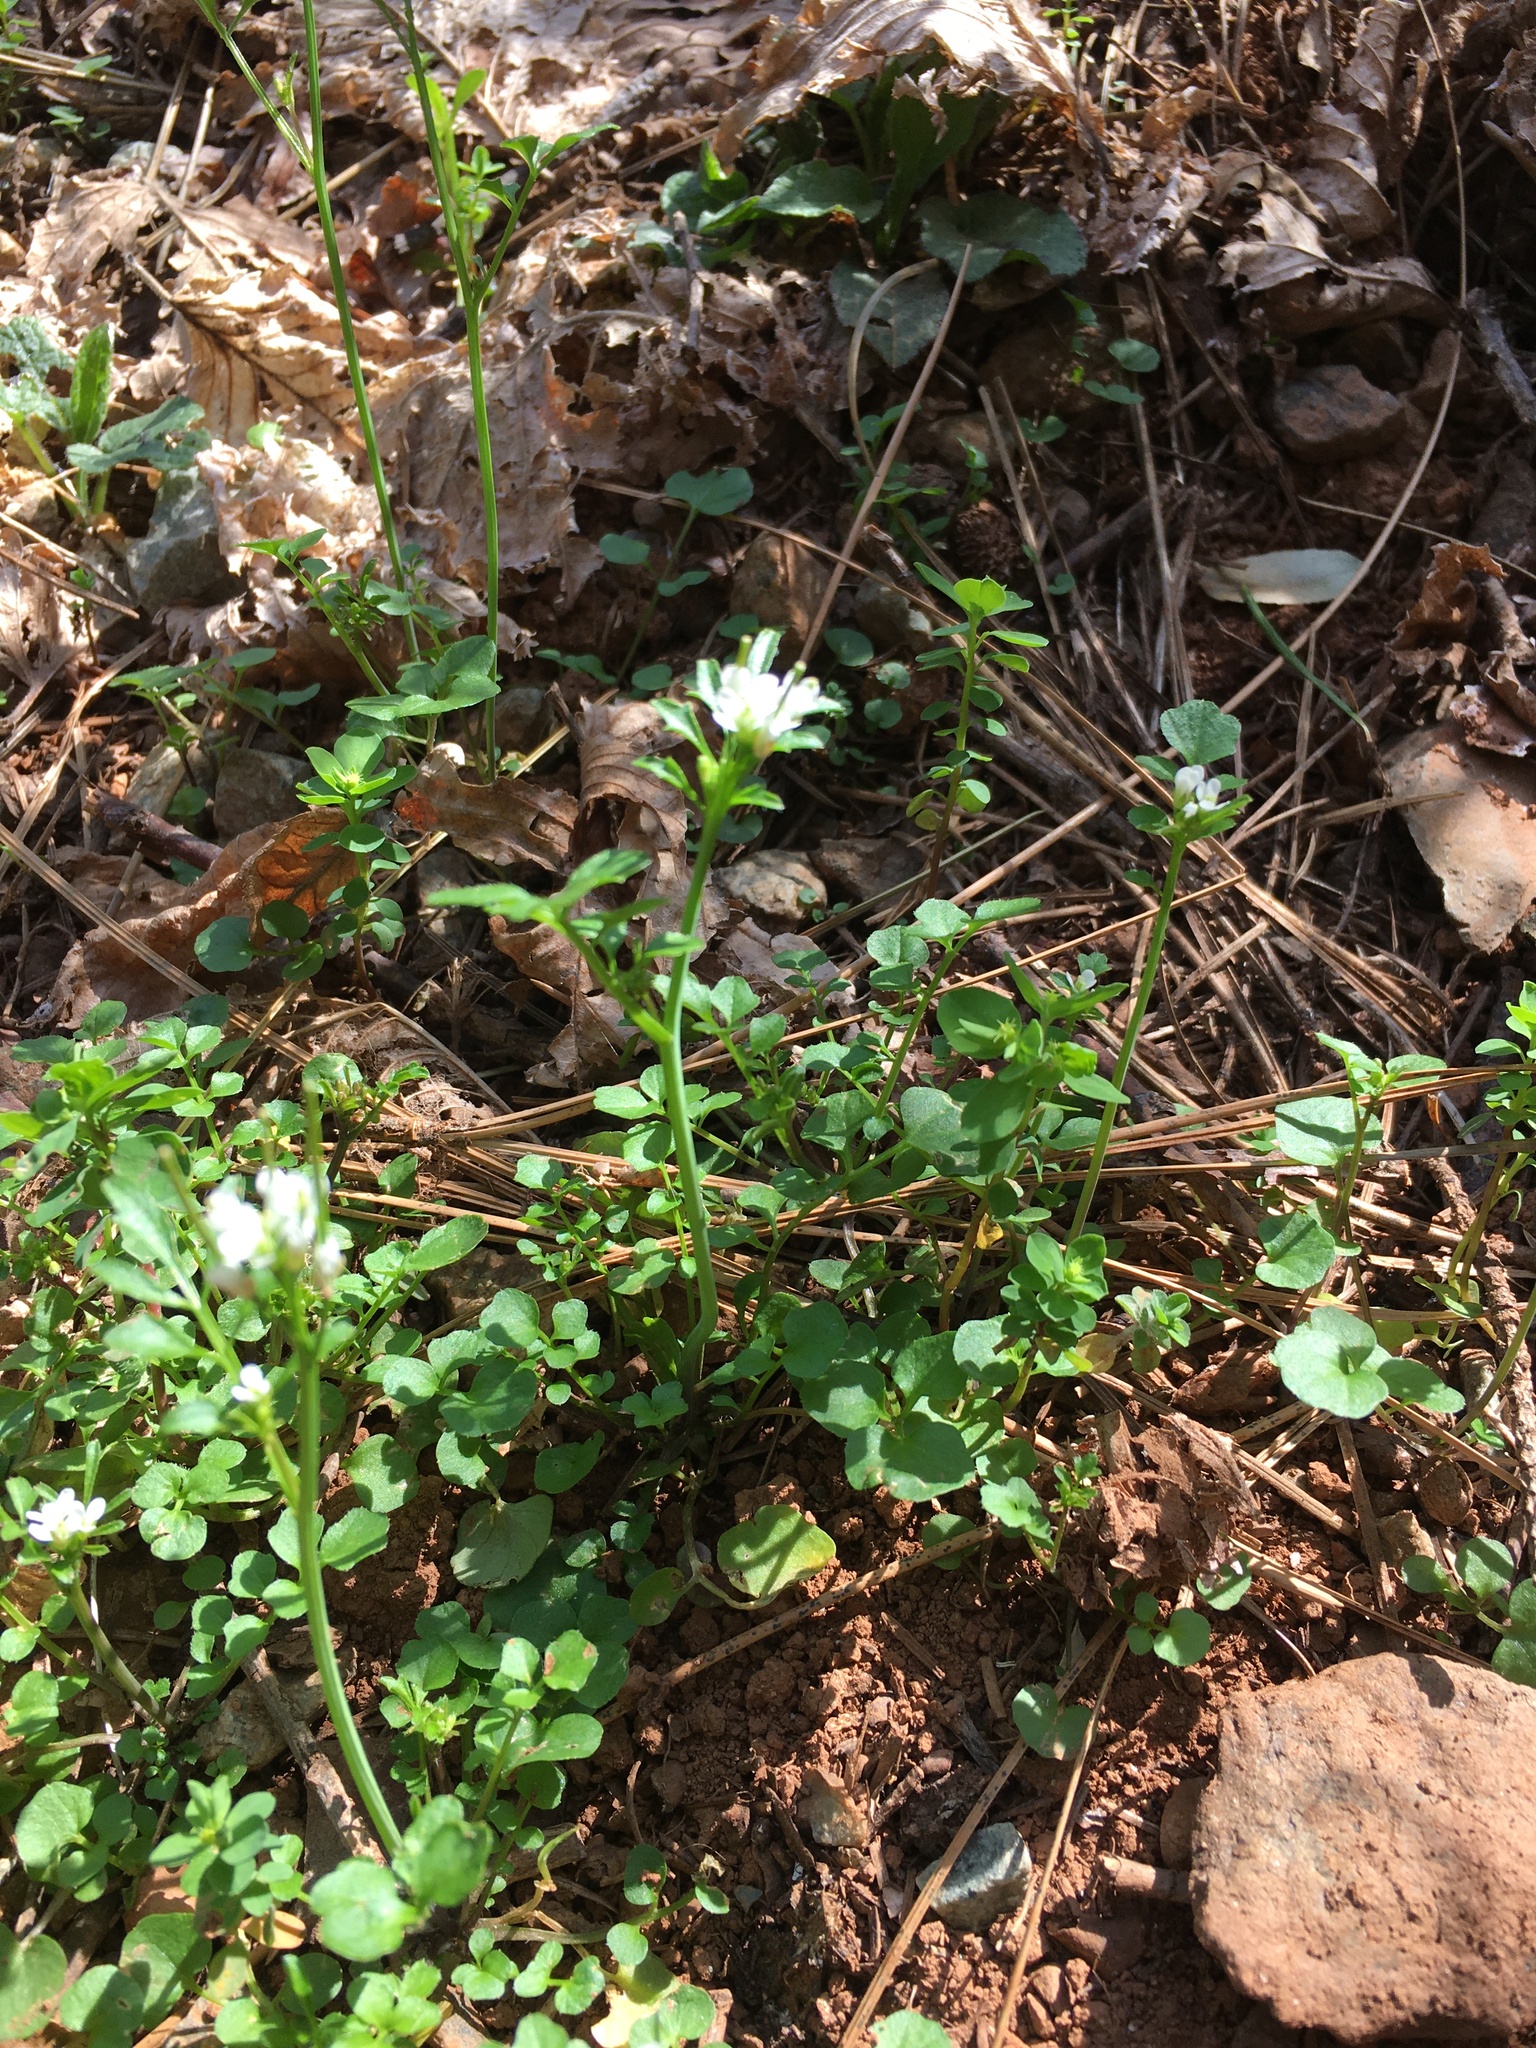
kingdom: Plantae
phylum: Tracheophyta
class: Magnoliopsida
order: Brassicales
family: Brassicaceae
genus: Cardamine
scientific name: Cardamine hirsuta
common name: Hairy bittercress
